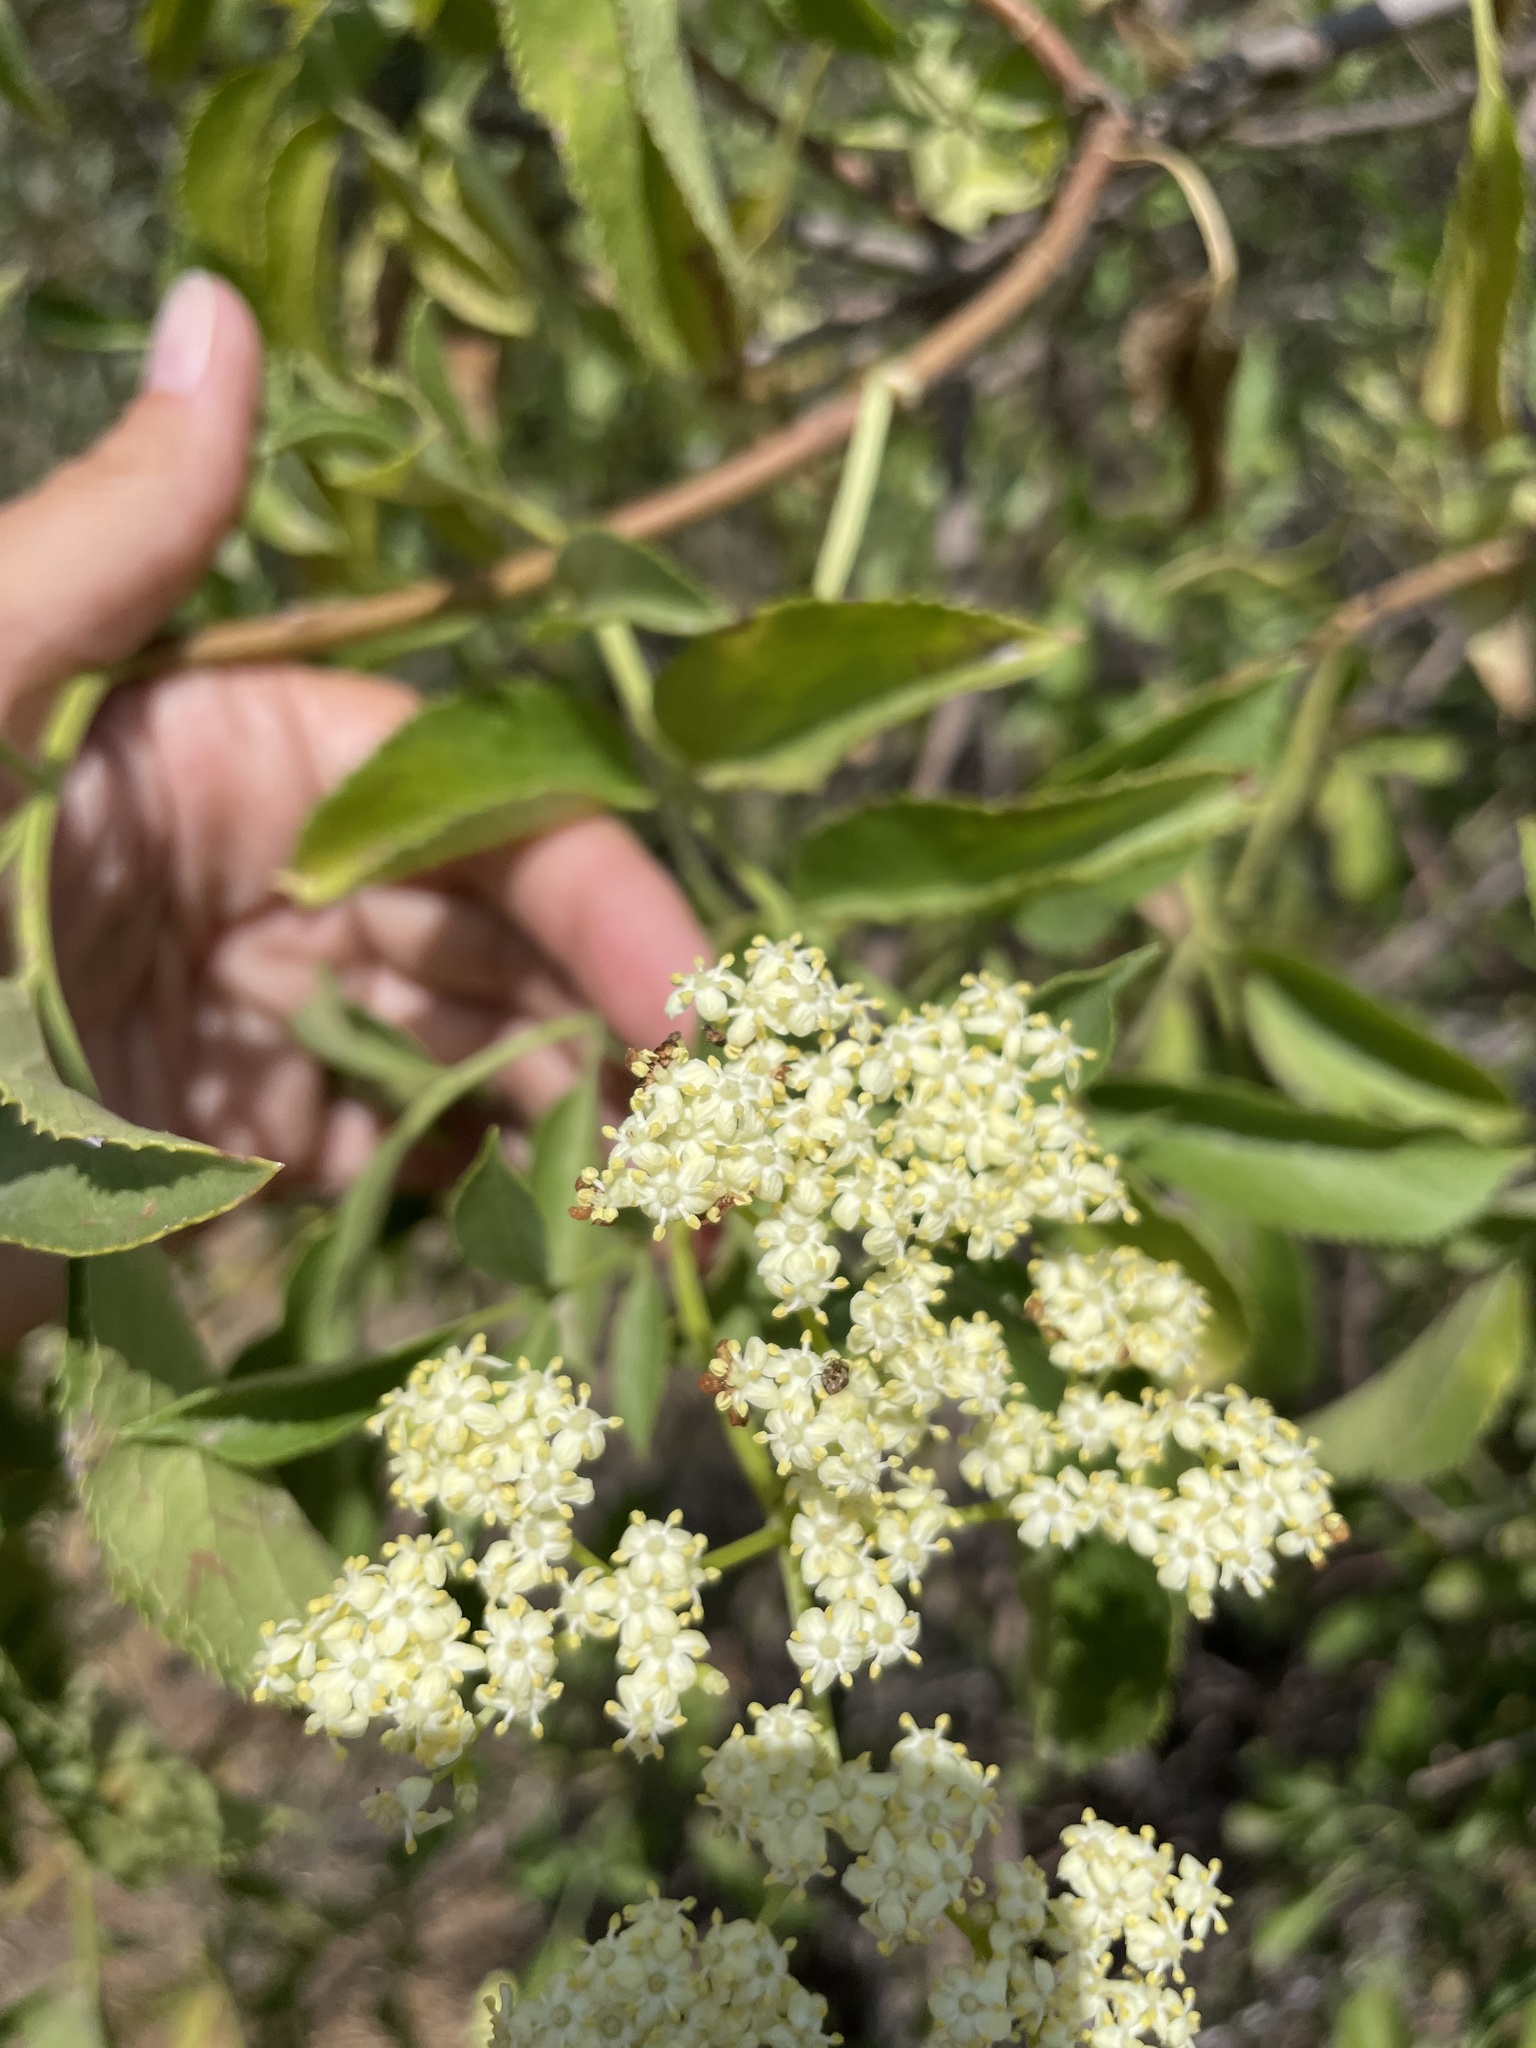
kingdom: Plantae
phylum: Tracheophyta
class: Magnoliopsida
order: Dipsacales
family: Viburnaceae
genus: Sambucus
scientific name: Sambucus cerulea
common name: Blue elder
